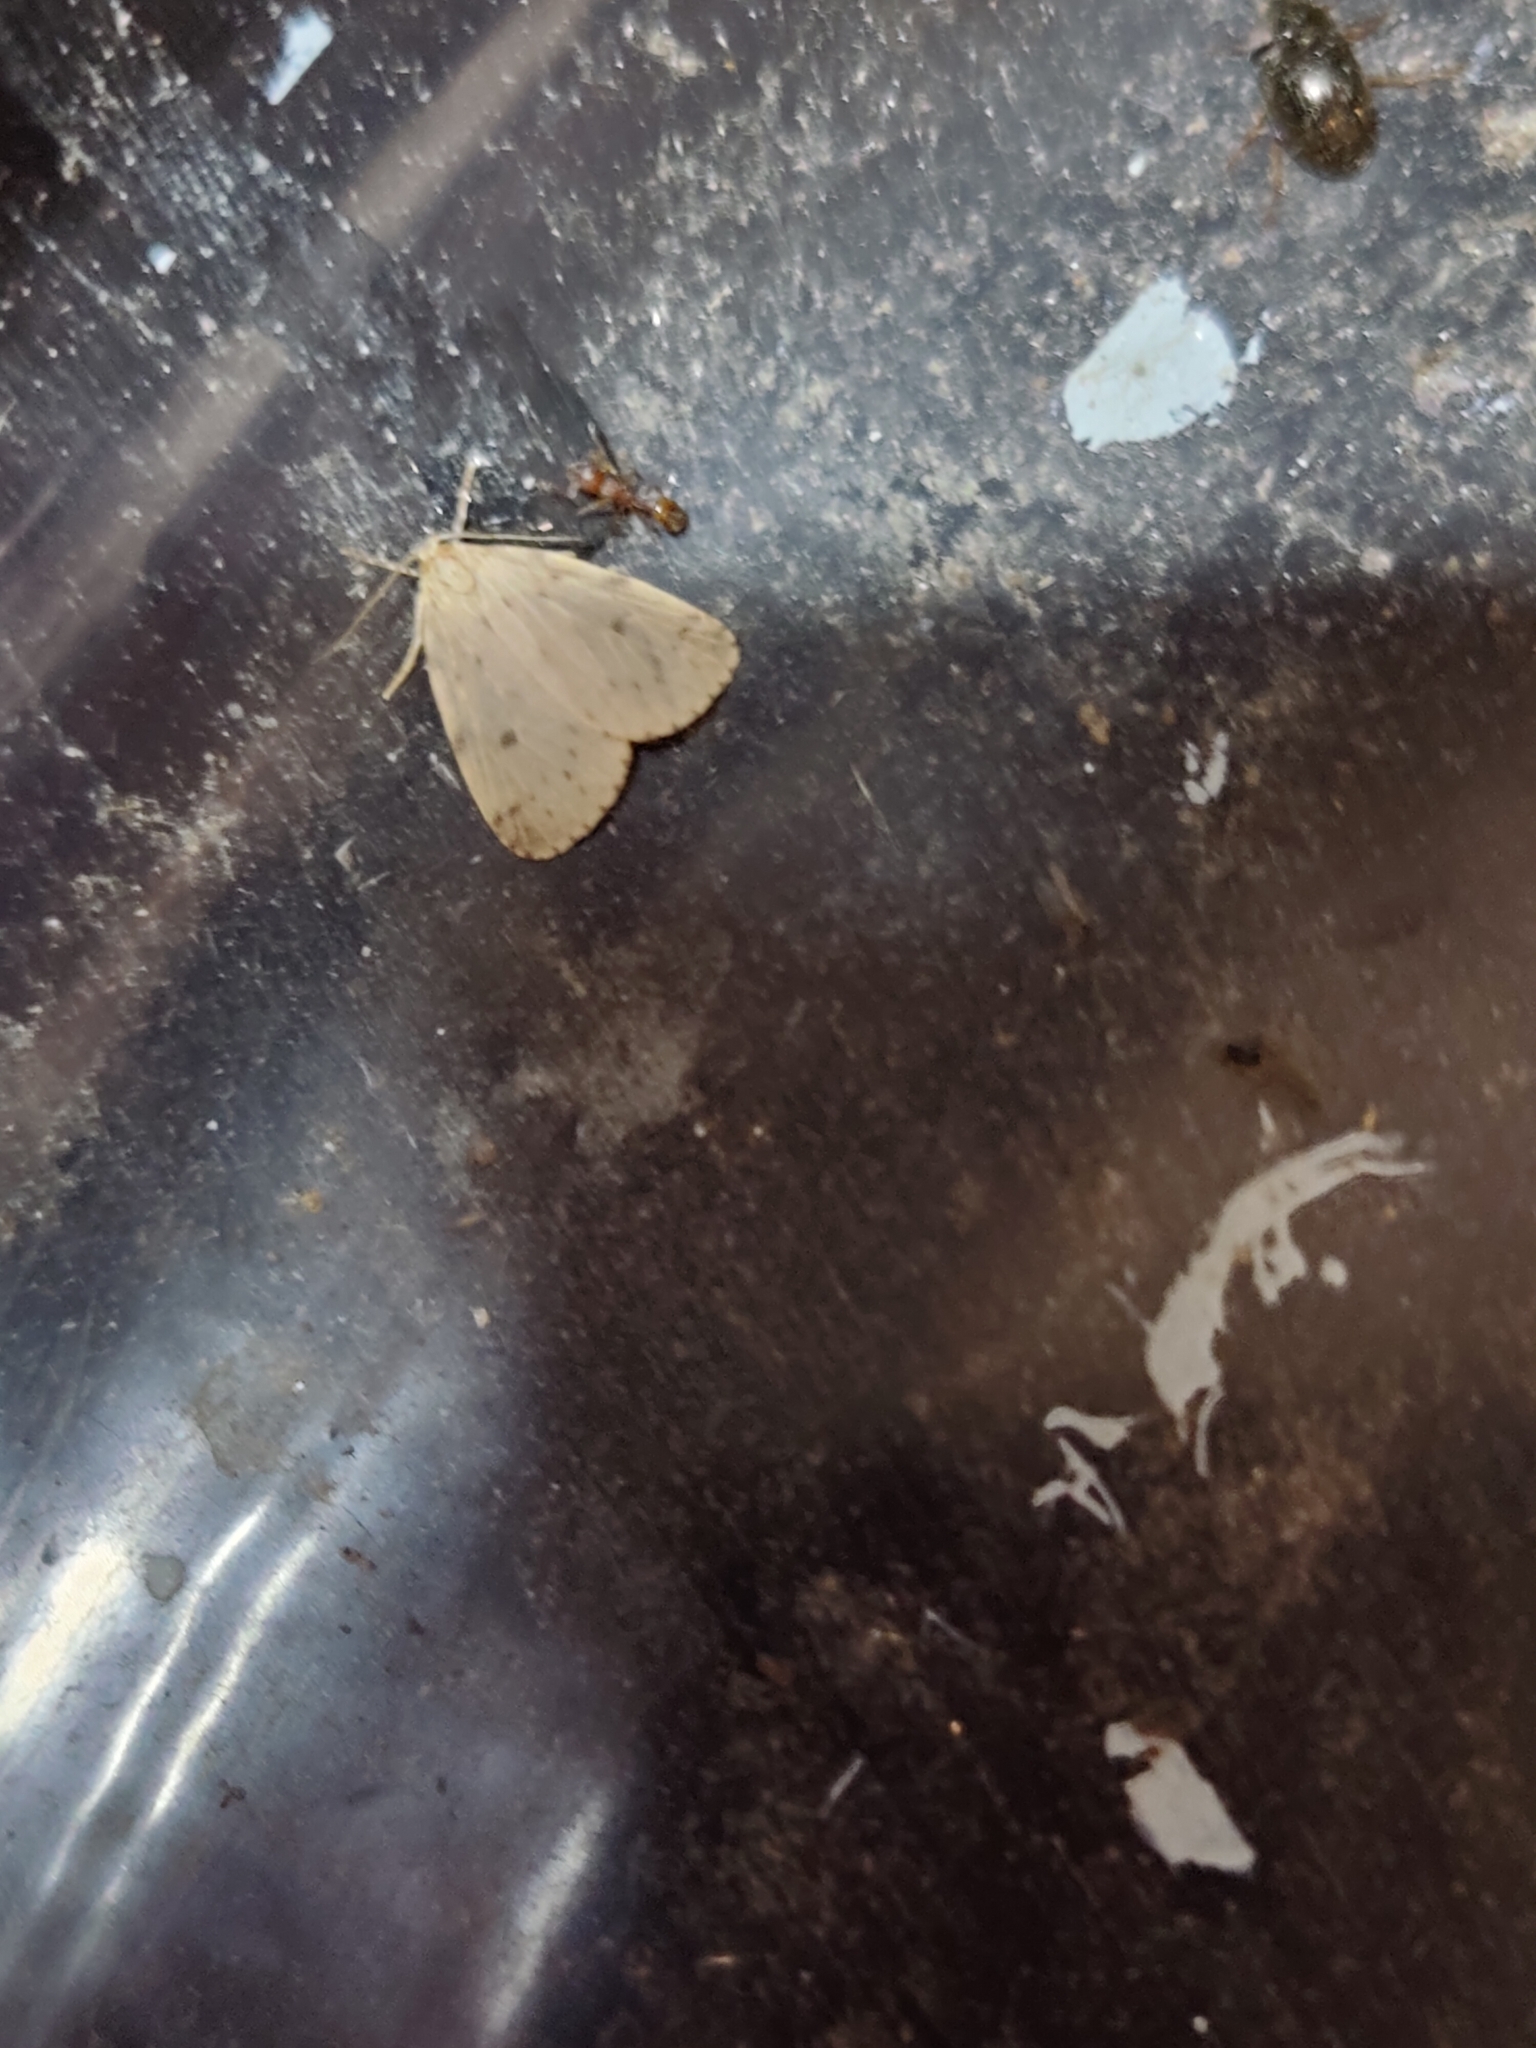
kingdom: Animalia
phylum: Arthropoda
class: Insecta
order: Lepidoptera
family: Erebidae
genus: Thumatha
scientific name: Thumatha senex
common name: Round-winged muslin
